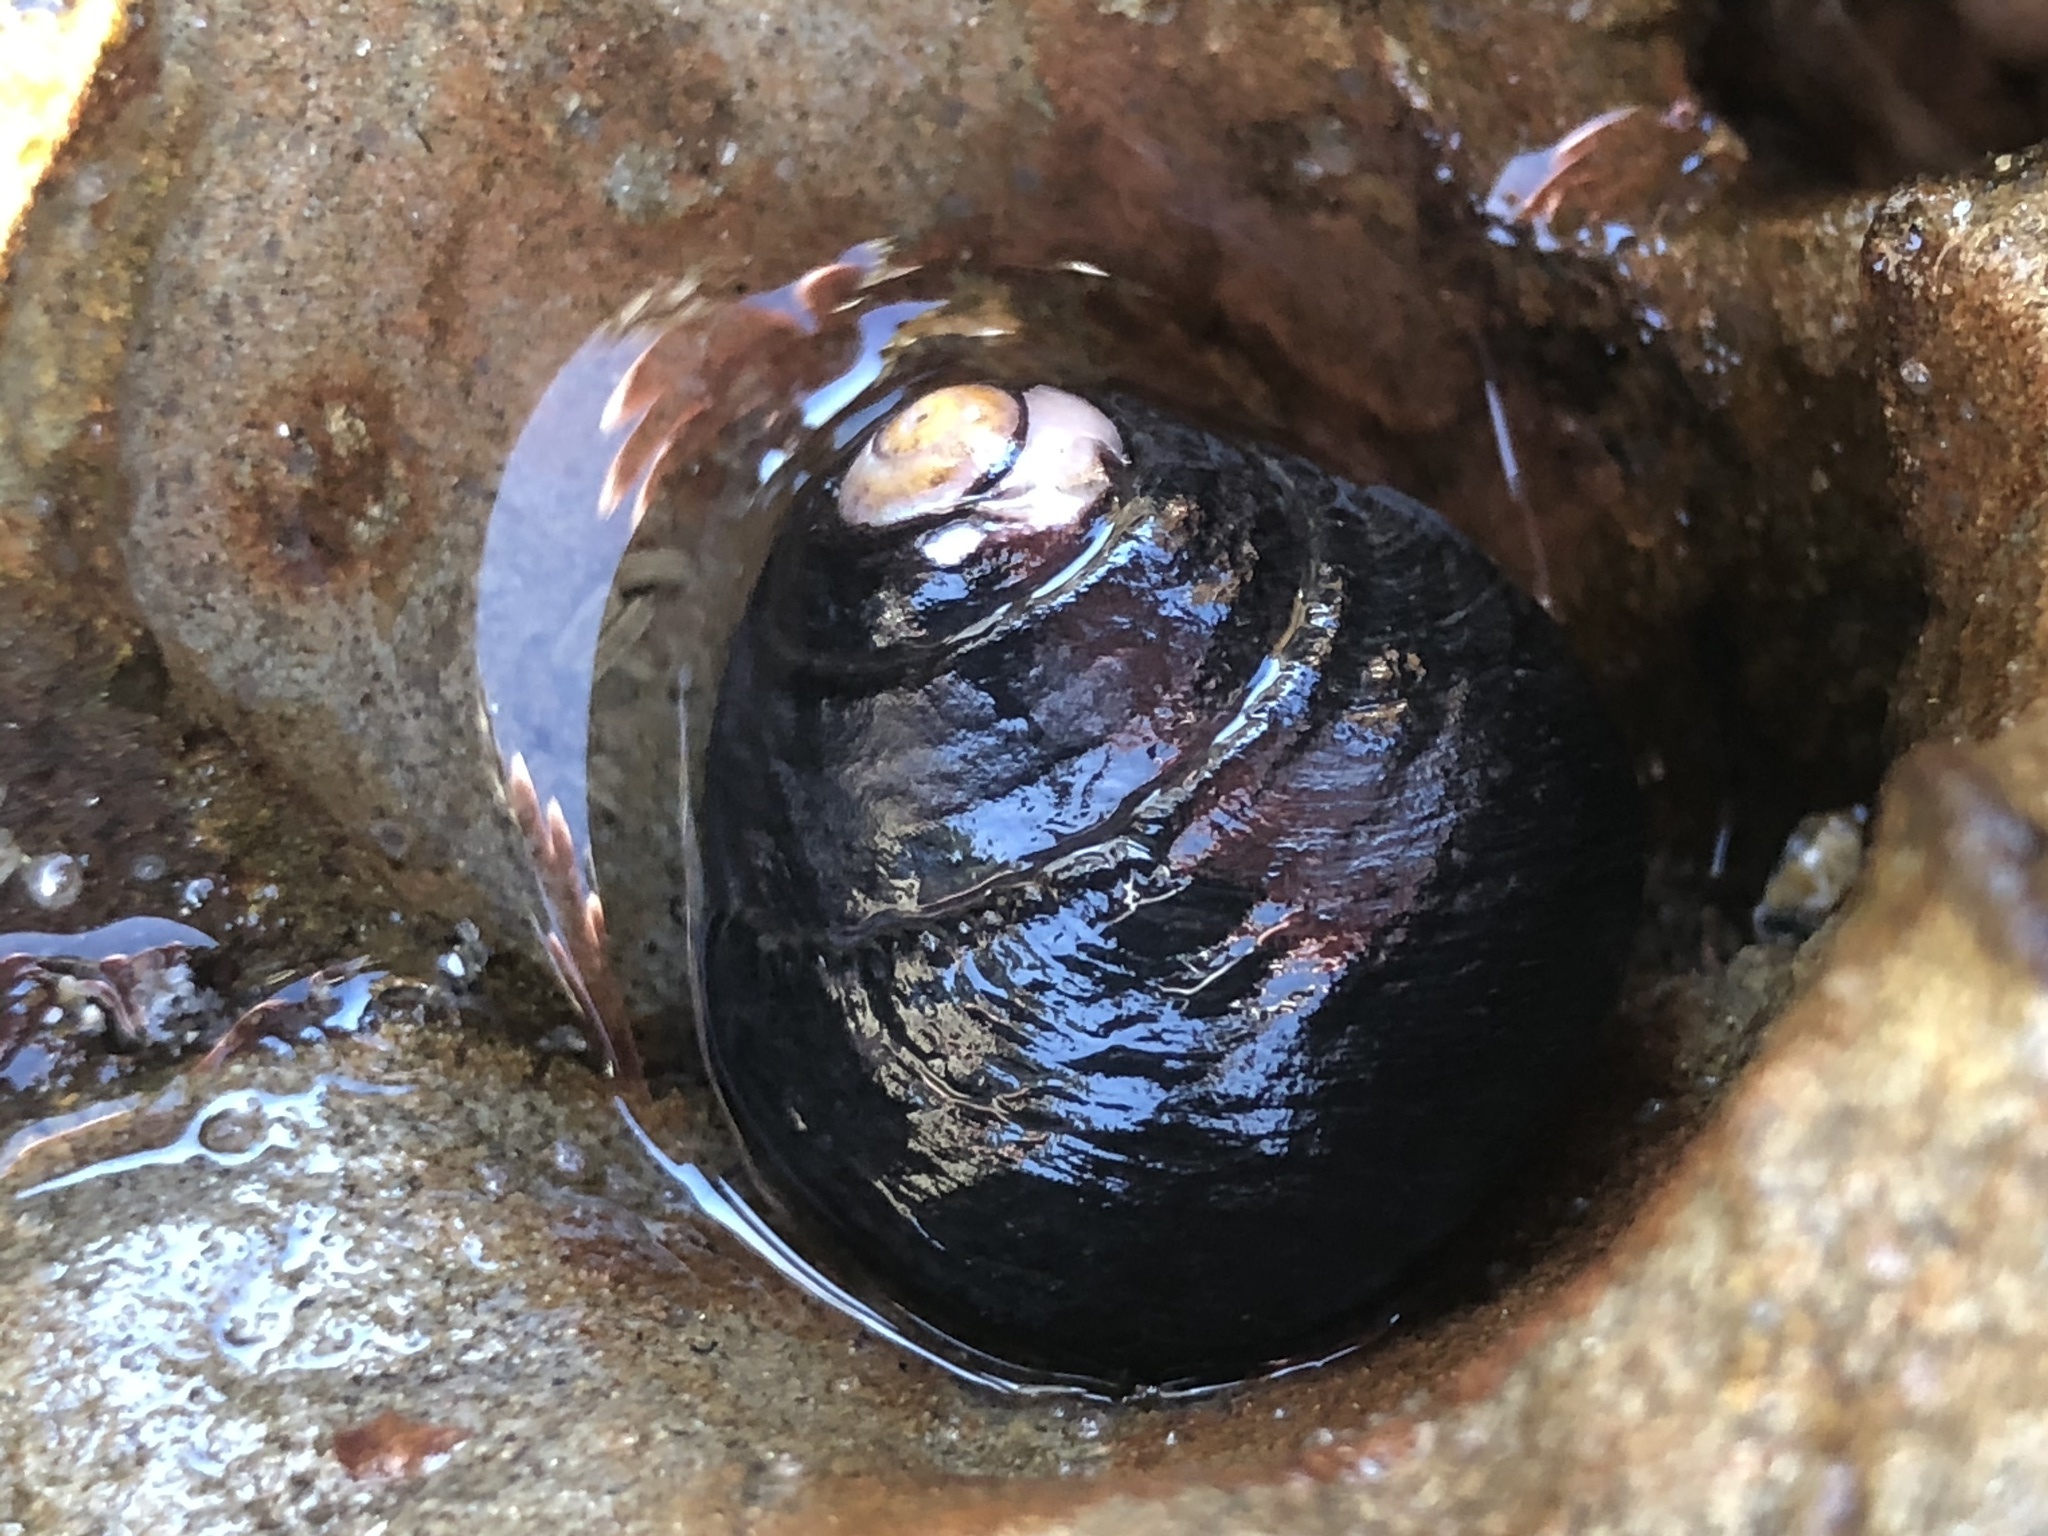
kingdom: Animalia
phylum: Mollusca
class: Gastropoda
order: Trochida
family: Tegulidae
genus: Tegula
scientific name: Tegula funebralis
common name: Black tegula
